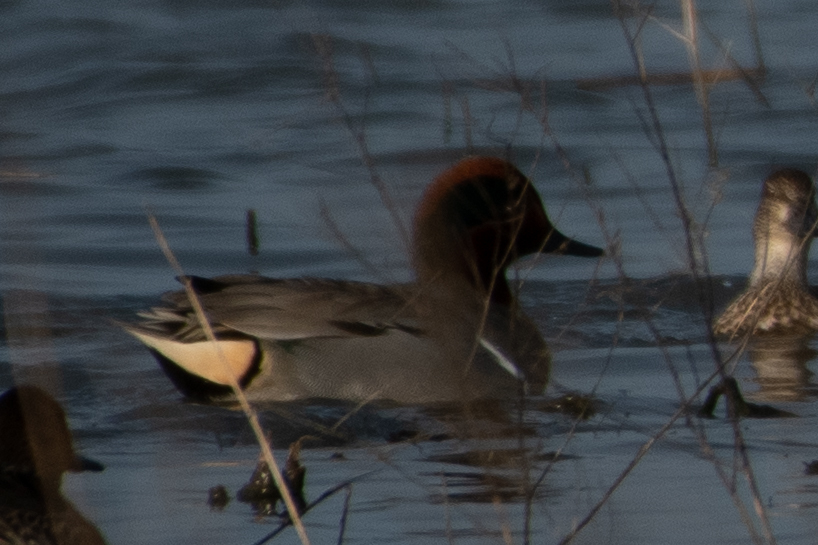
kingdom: Animalia
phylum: Chordata
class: Aves
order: Anseriformes
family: Anatidae
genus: Anas
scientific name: Anas crecca
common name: Eurasian teal
